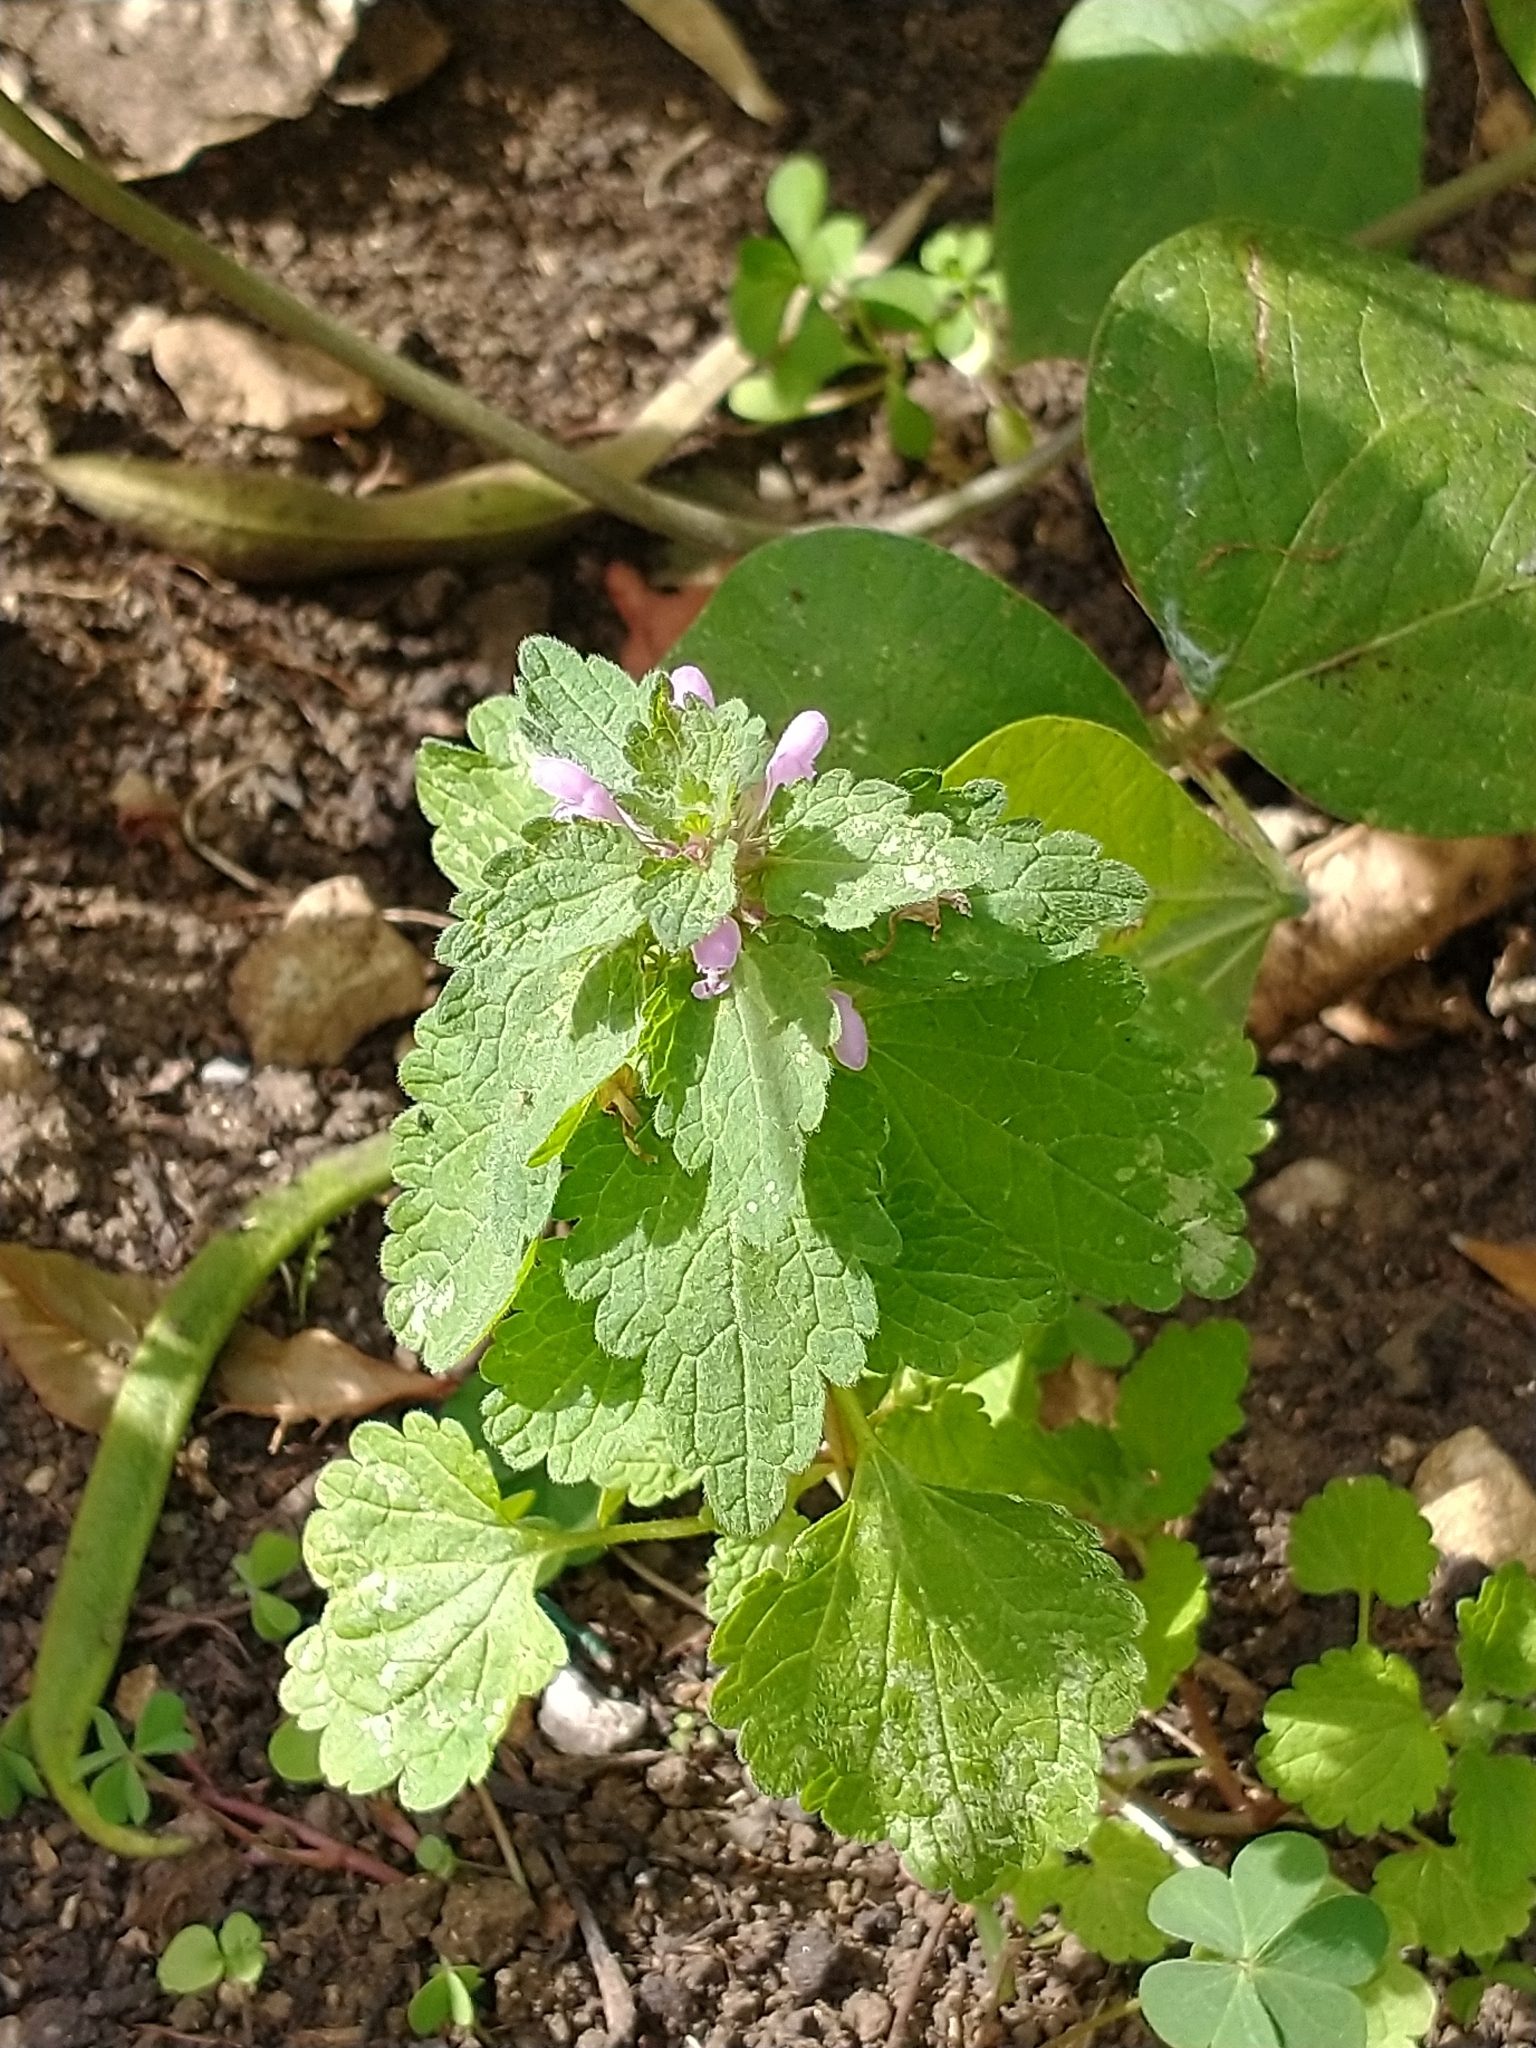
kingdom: Plantae
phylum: Tracheophyta
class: Magnoliopsida
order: Lamiales
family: Lamiaceae
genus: Lamium
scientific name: Lamium purpureum
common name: Red dead-nettle
